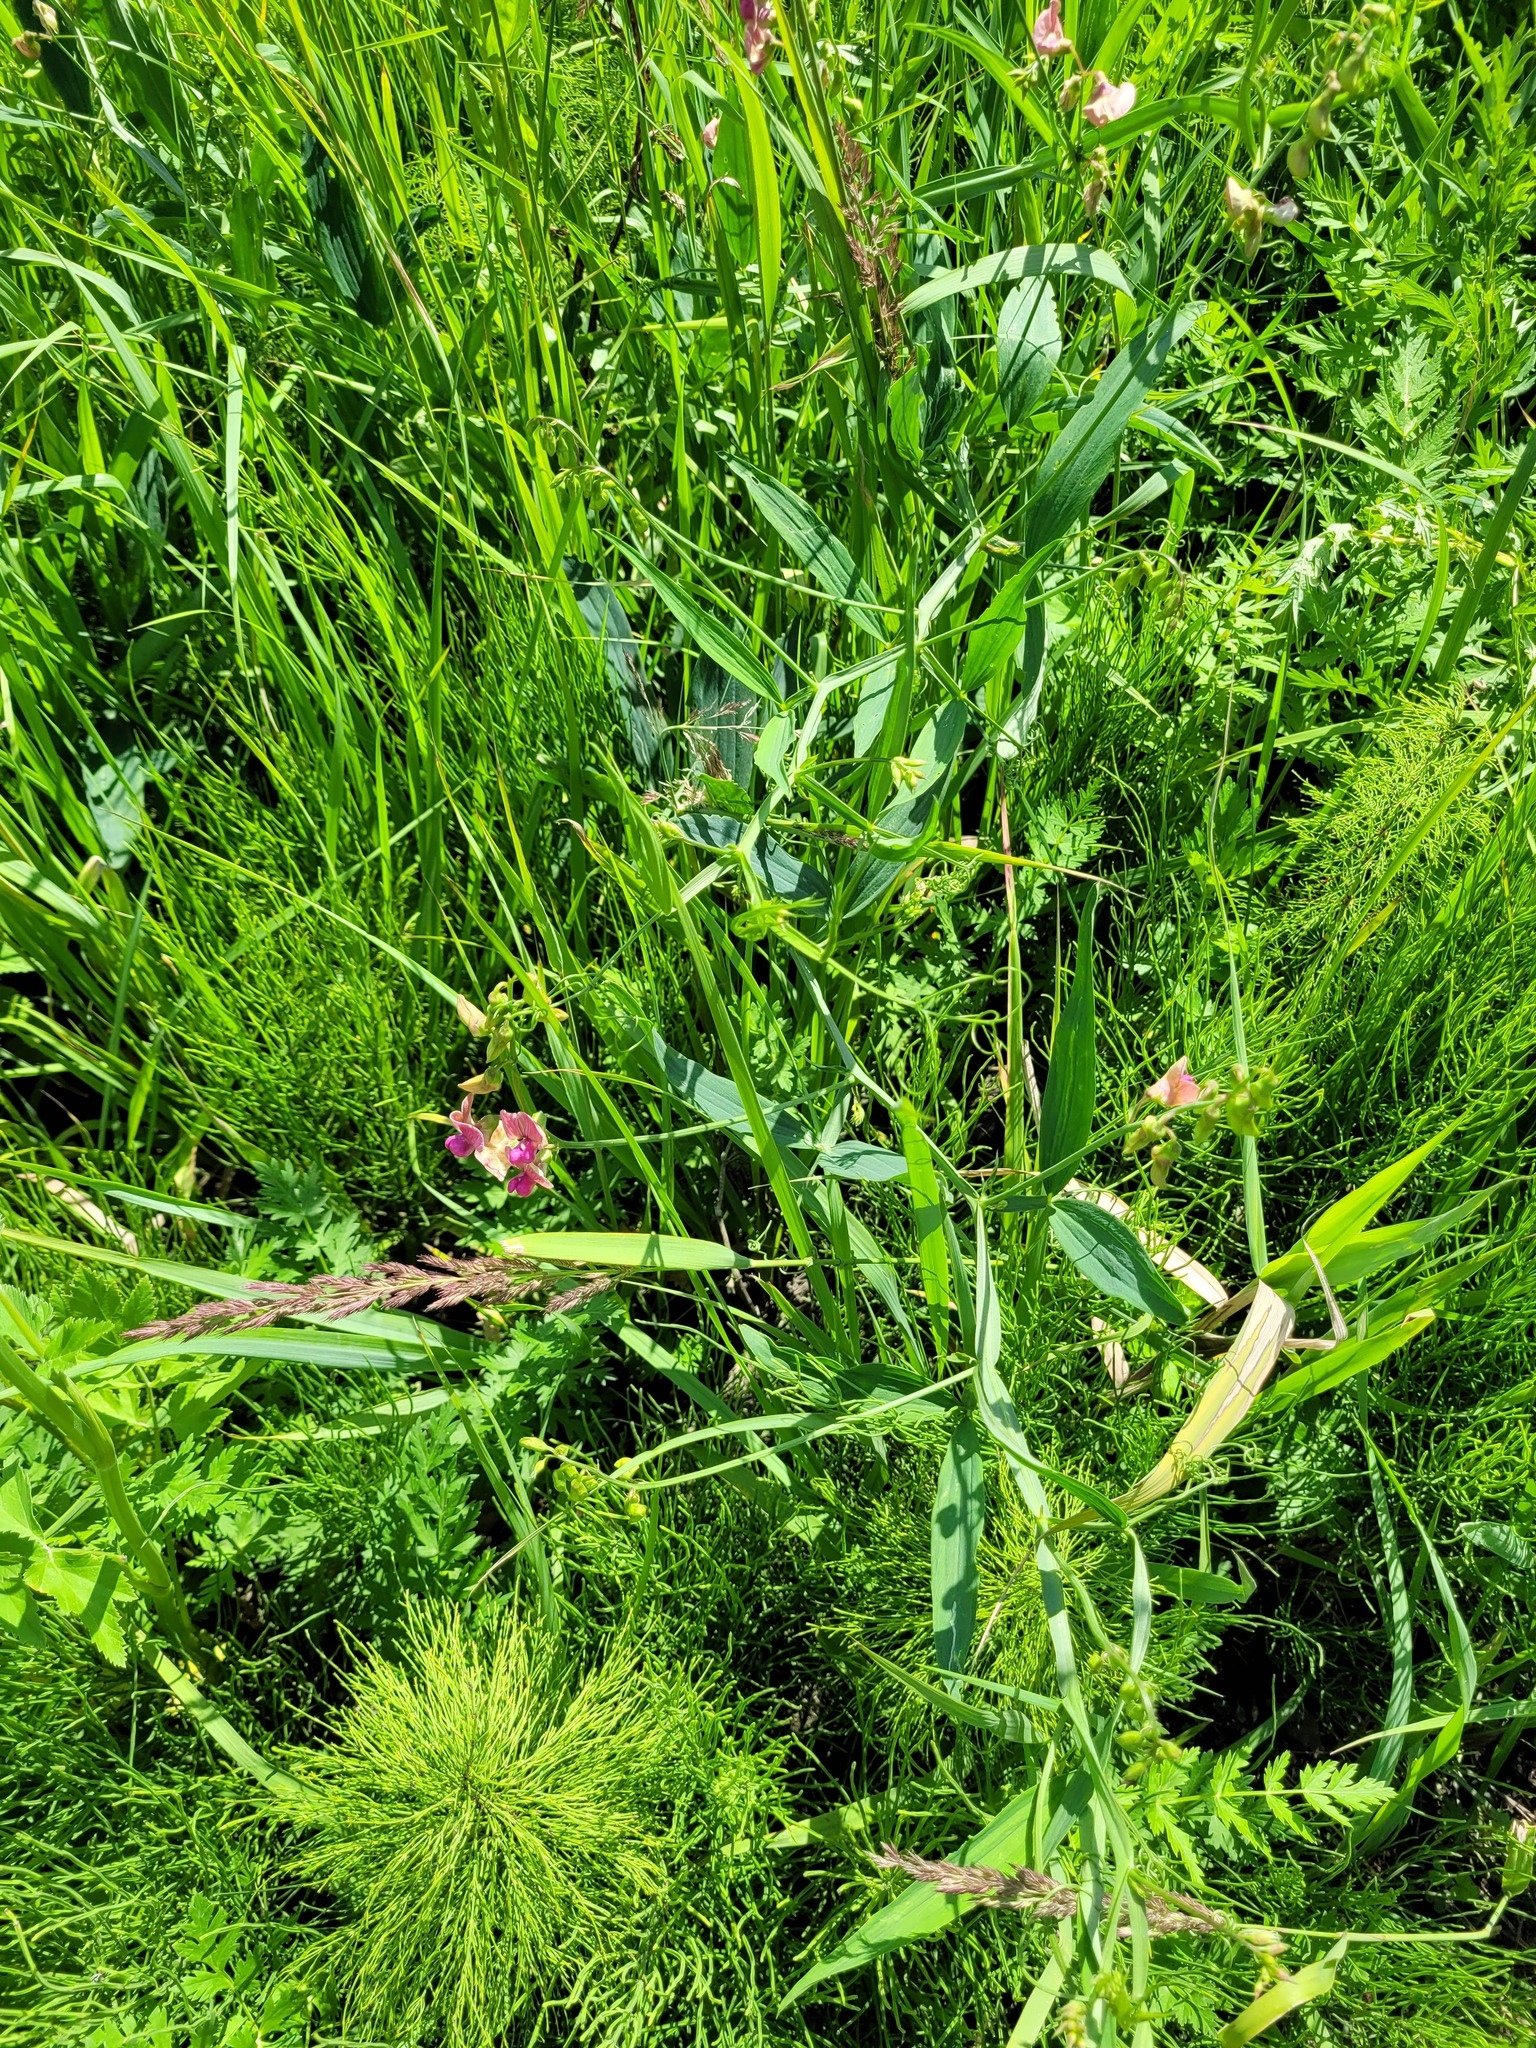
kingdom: Plantae
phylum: Tracheophyta
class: Magnoliopsida
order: Fabales
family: Fabaceae
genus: Lathyrus
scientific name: Lathyrus sylvestris
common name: Flat pea
